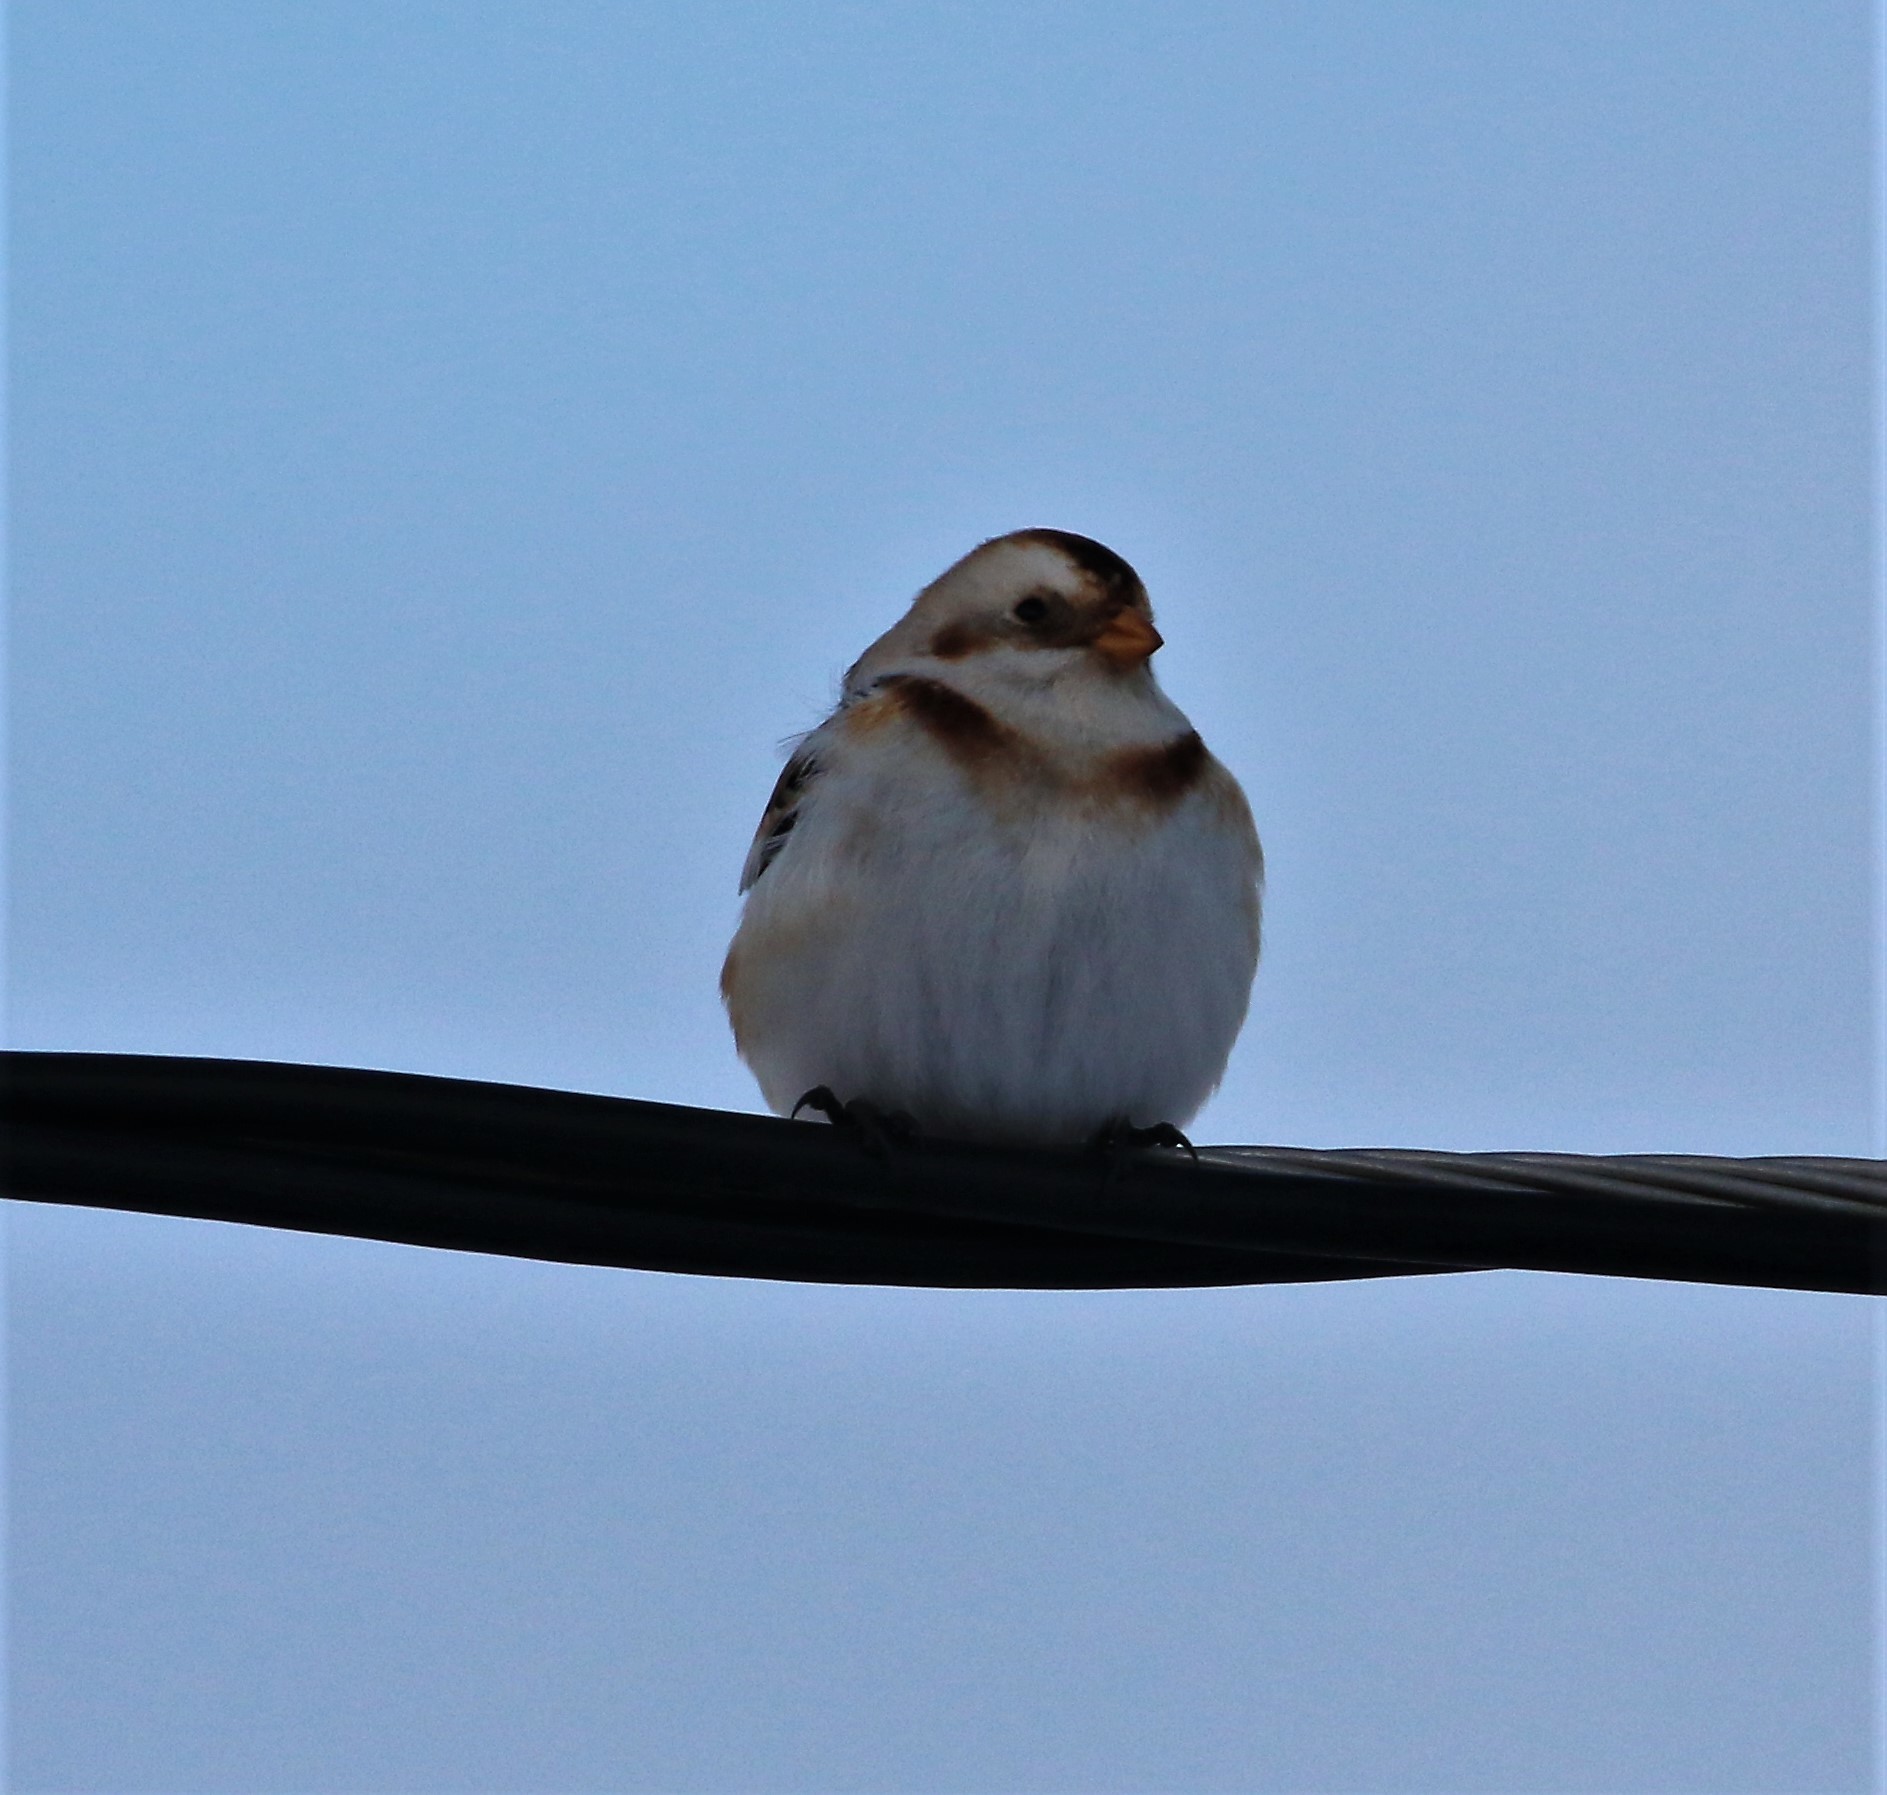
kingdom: Animalia
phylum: Chordata
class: Aves
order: Passeriformes
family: Calcariidae
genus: Plectrophenax
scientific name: Plectrophenax nivalis
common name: Snow bunting
